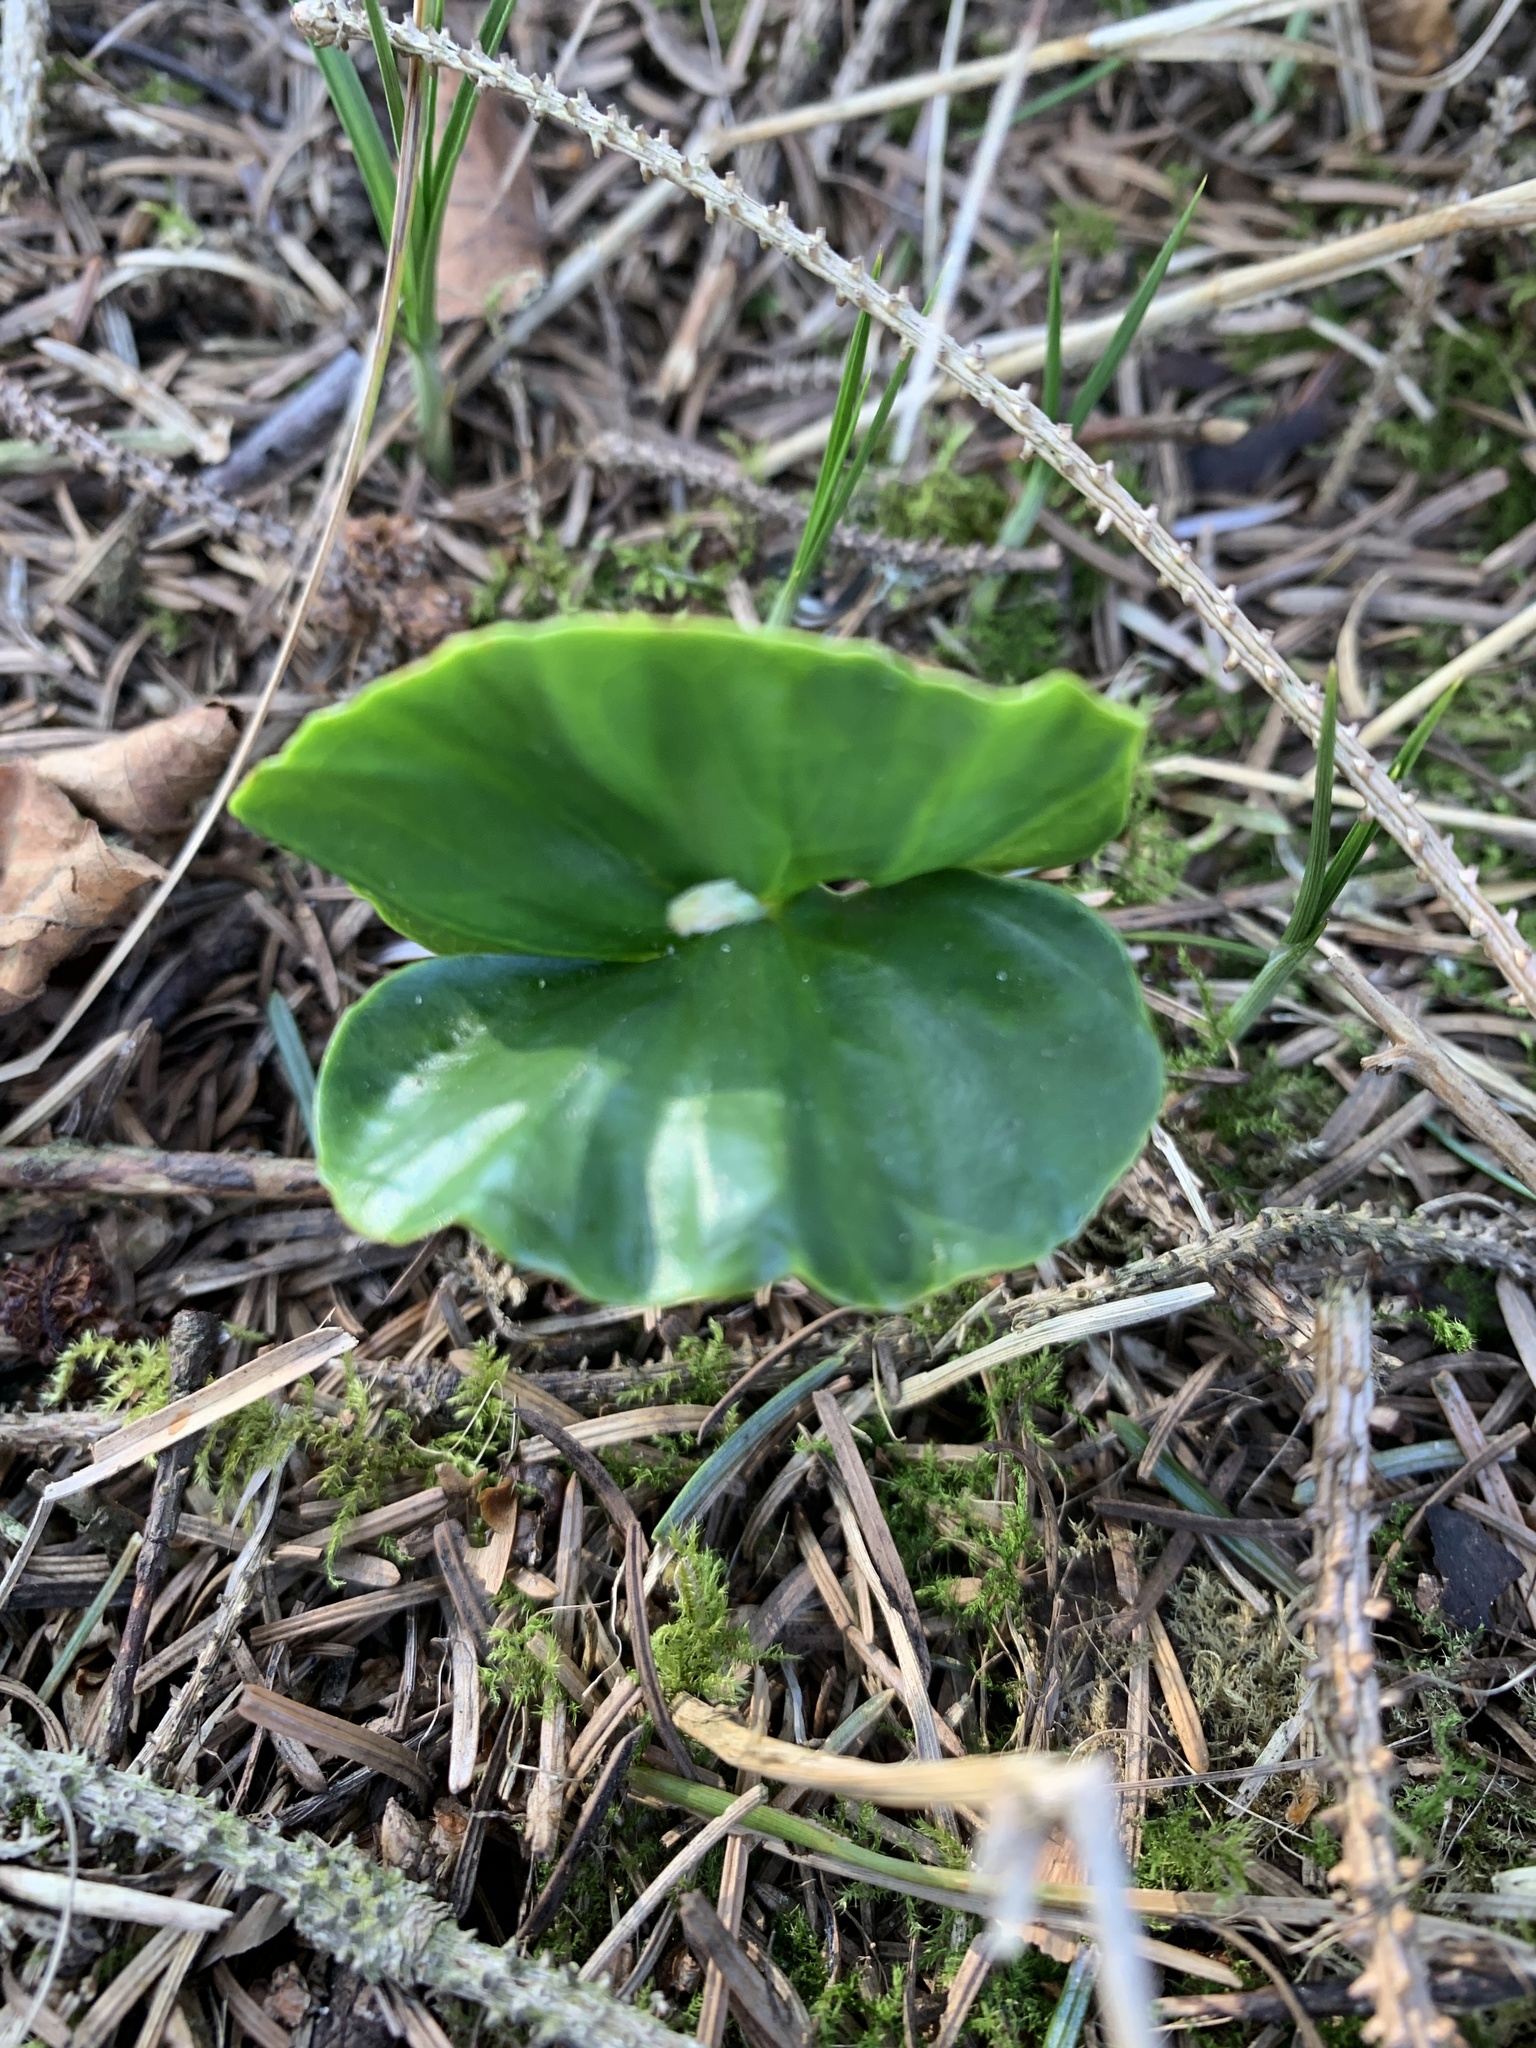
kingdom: Plantae
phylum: Tracheophyta
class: Magnoliopsida
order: Fagales
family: Fagaceae
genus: Fagus
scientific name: Fagus sylvatica
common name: Beech
